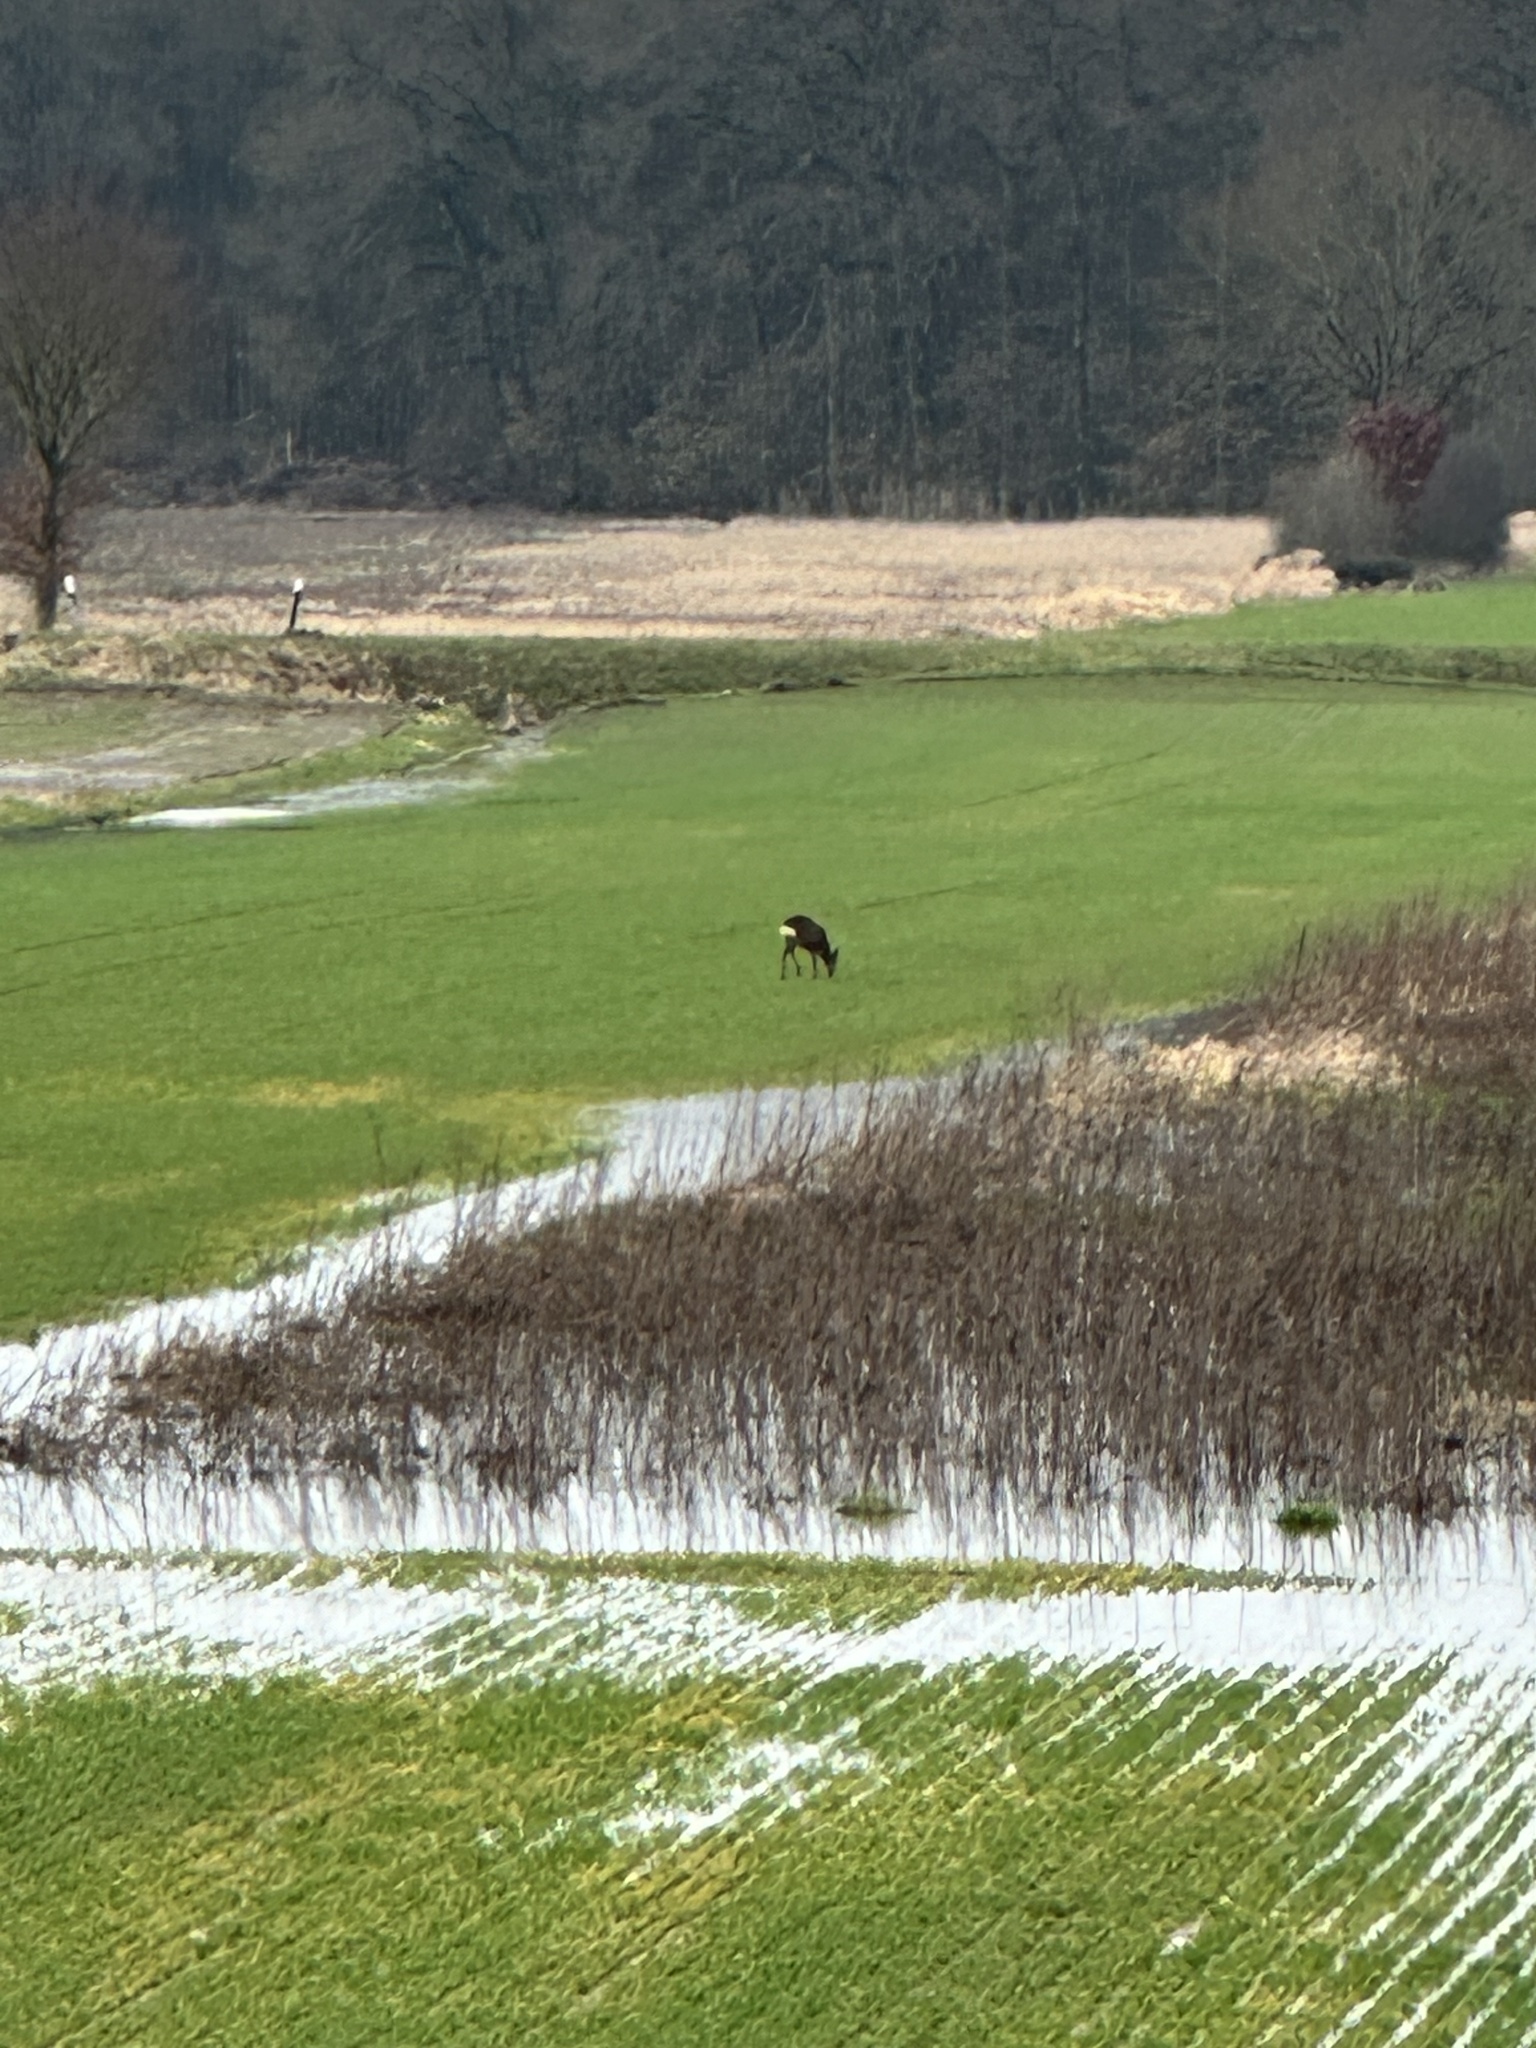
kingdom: Animalia
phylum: Chordata
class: Mammalia
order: Artiodactyla
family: Cervidae
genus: Capreolus
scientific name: Capreolus capreolus
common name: Western roe deer
